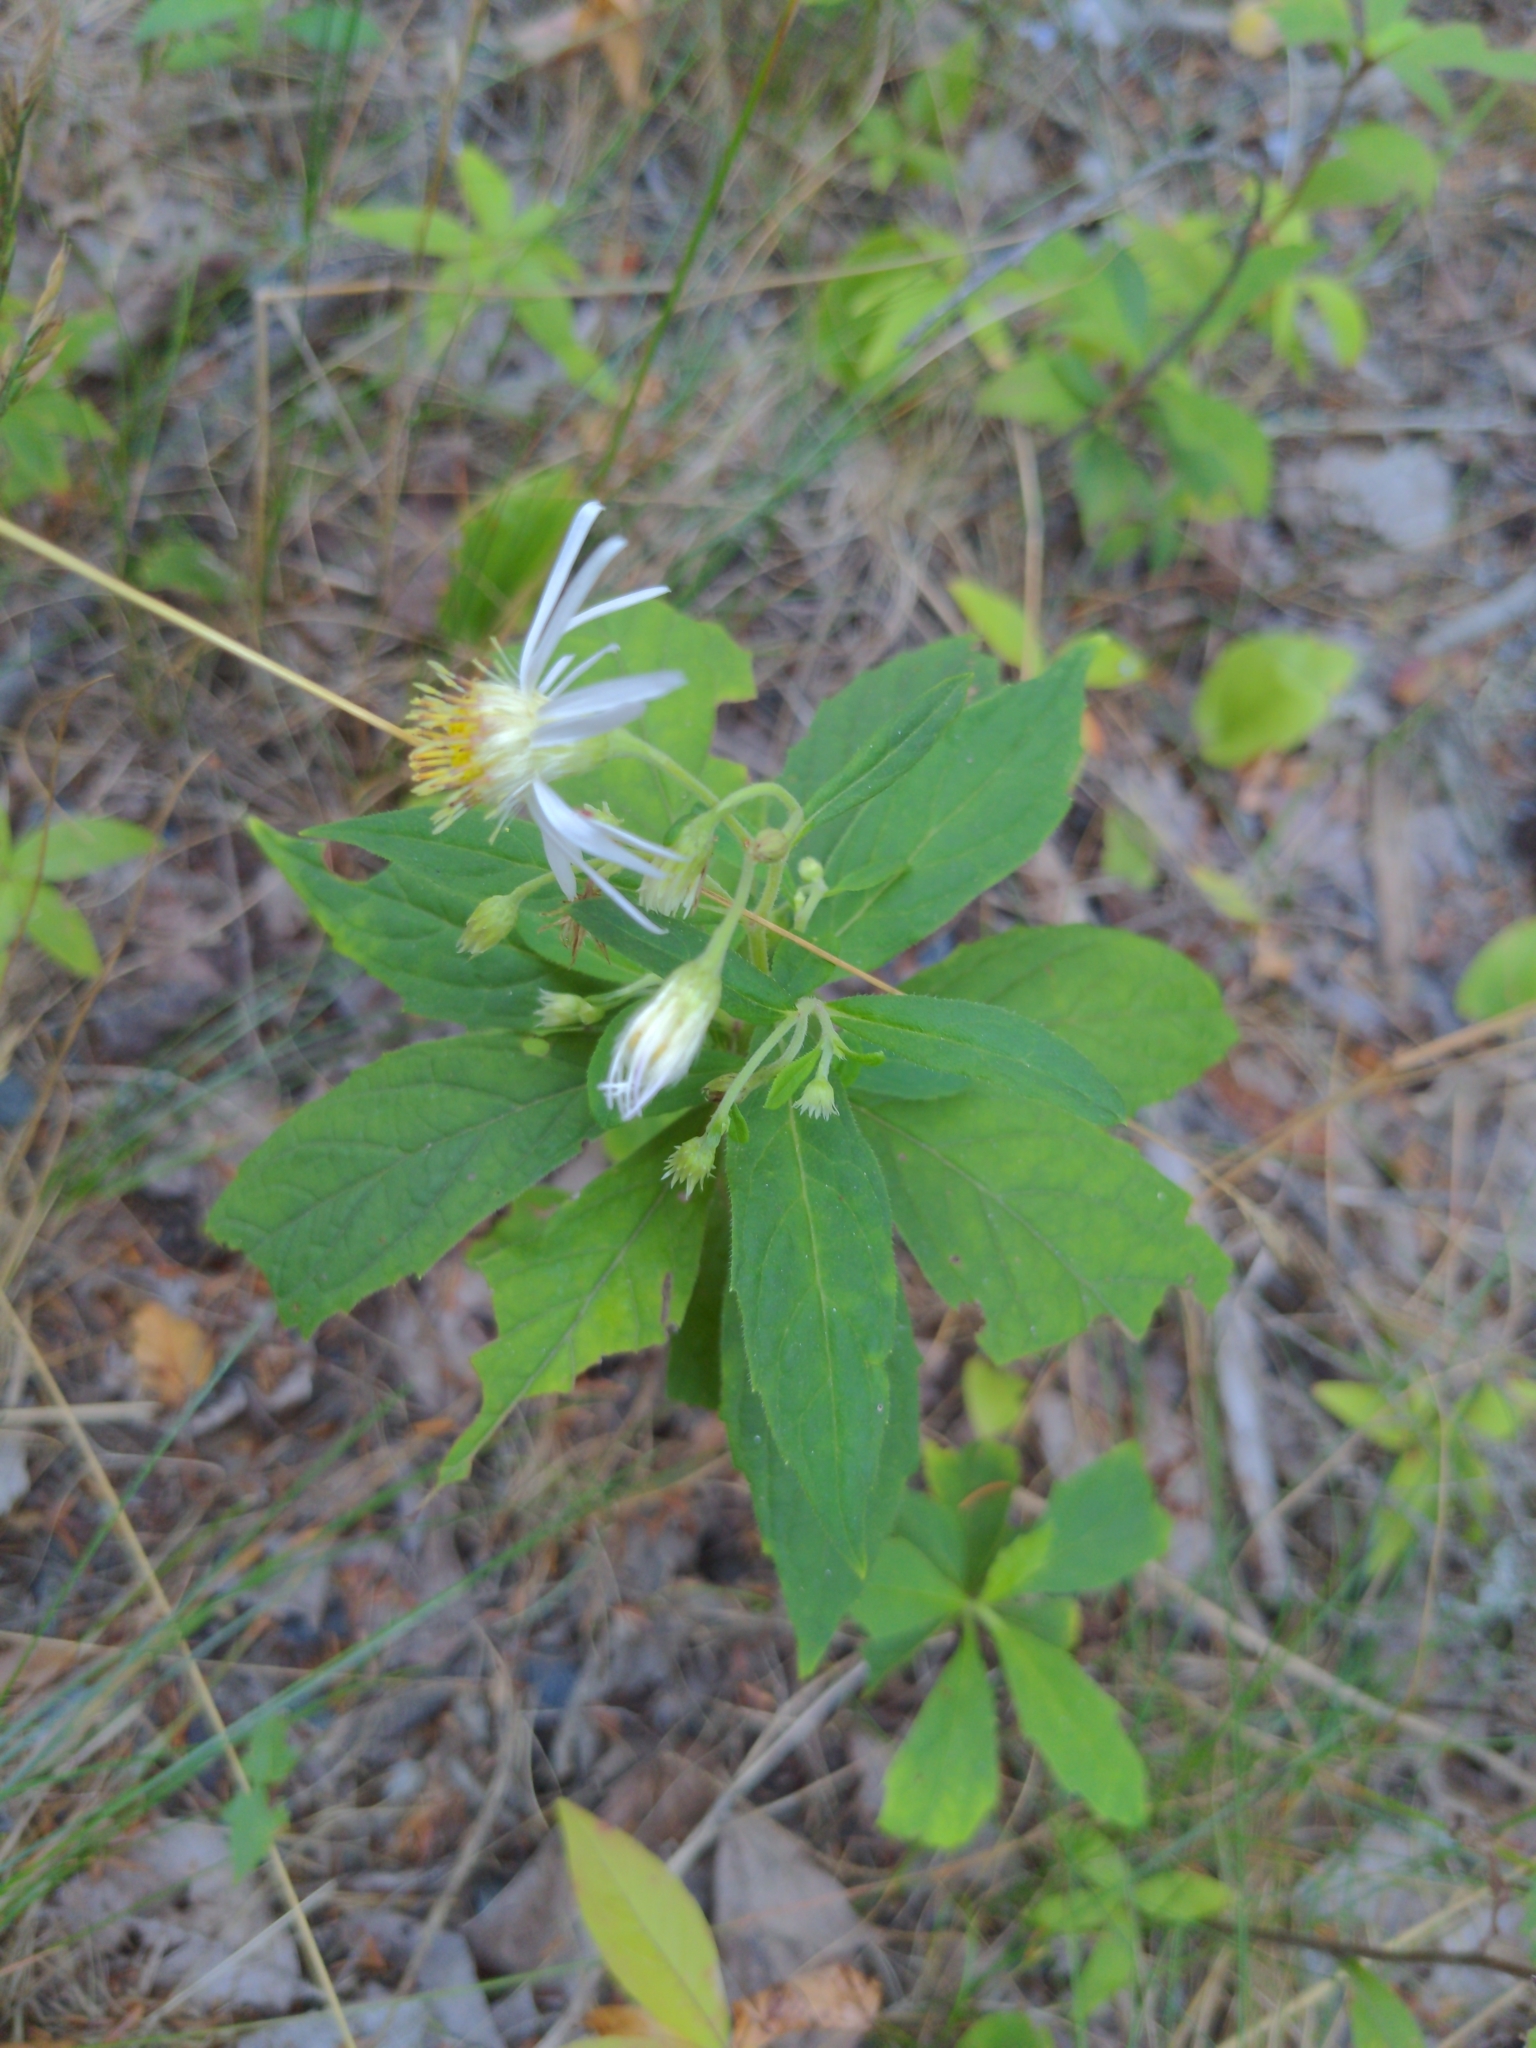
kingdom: Plantae
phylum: Tracheophyta
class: Magnoliopsida
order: Asterales
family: Asteraceae
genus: Oclemena
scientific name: Oclemena acuminata
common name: Mountain aster
